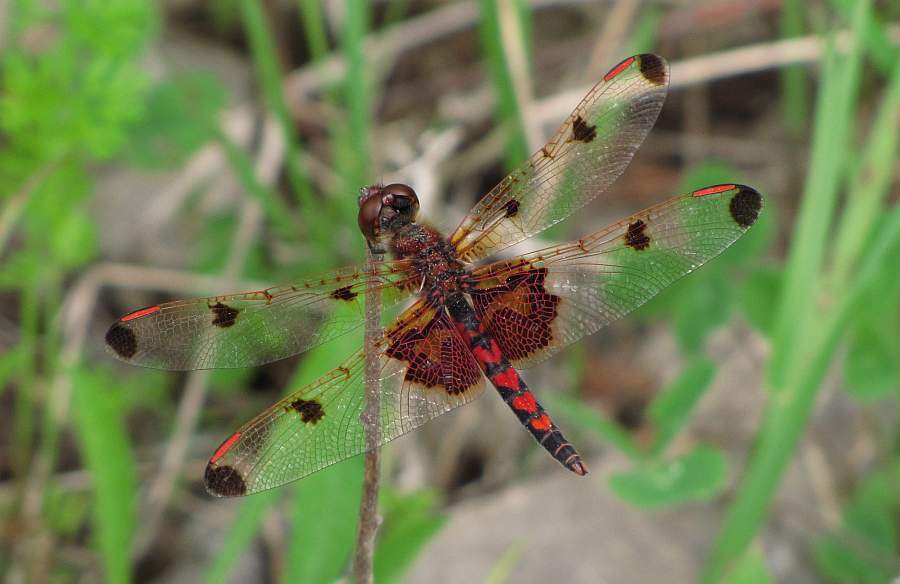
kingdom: Animalia
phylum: Arthropoda
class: Insecta
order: Odonata
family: Libellulidae
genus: Celithemis
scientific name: Celithemis elisa
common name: Calico pennant
